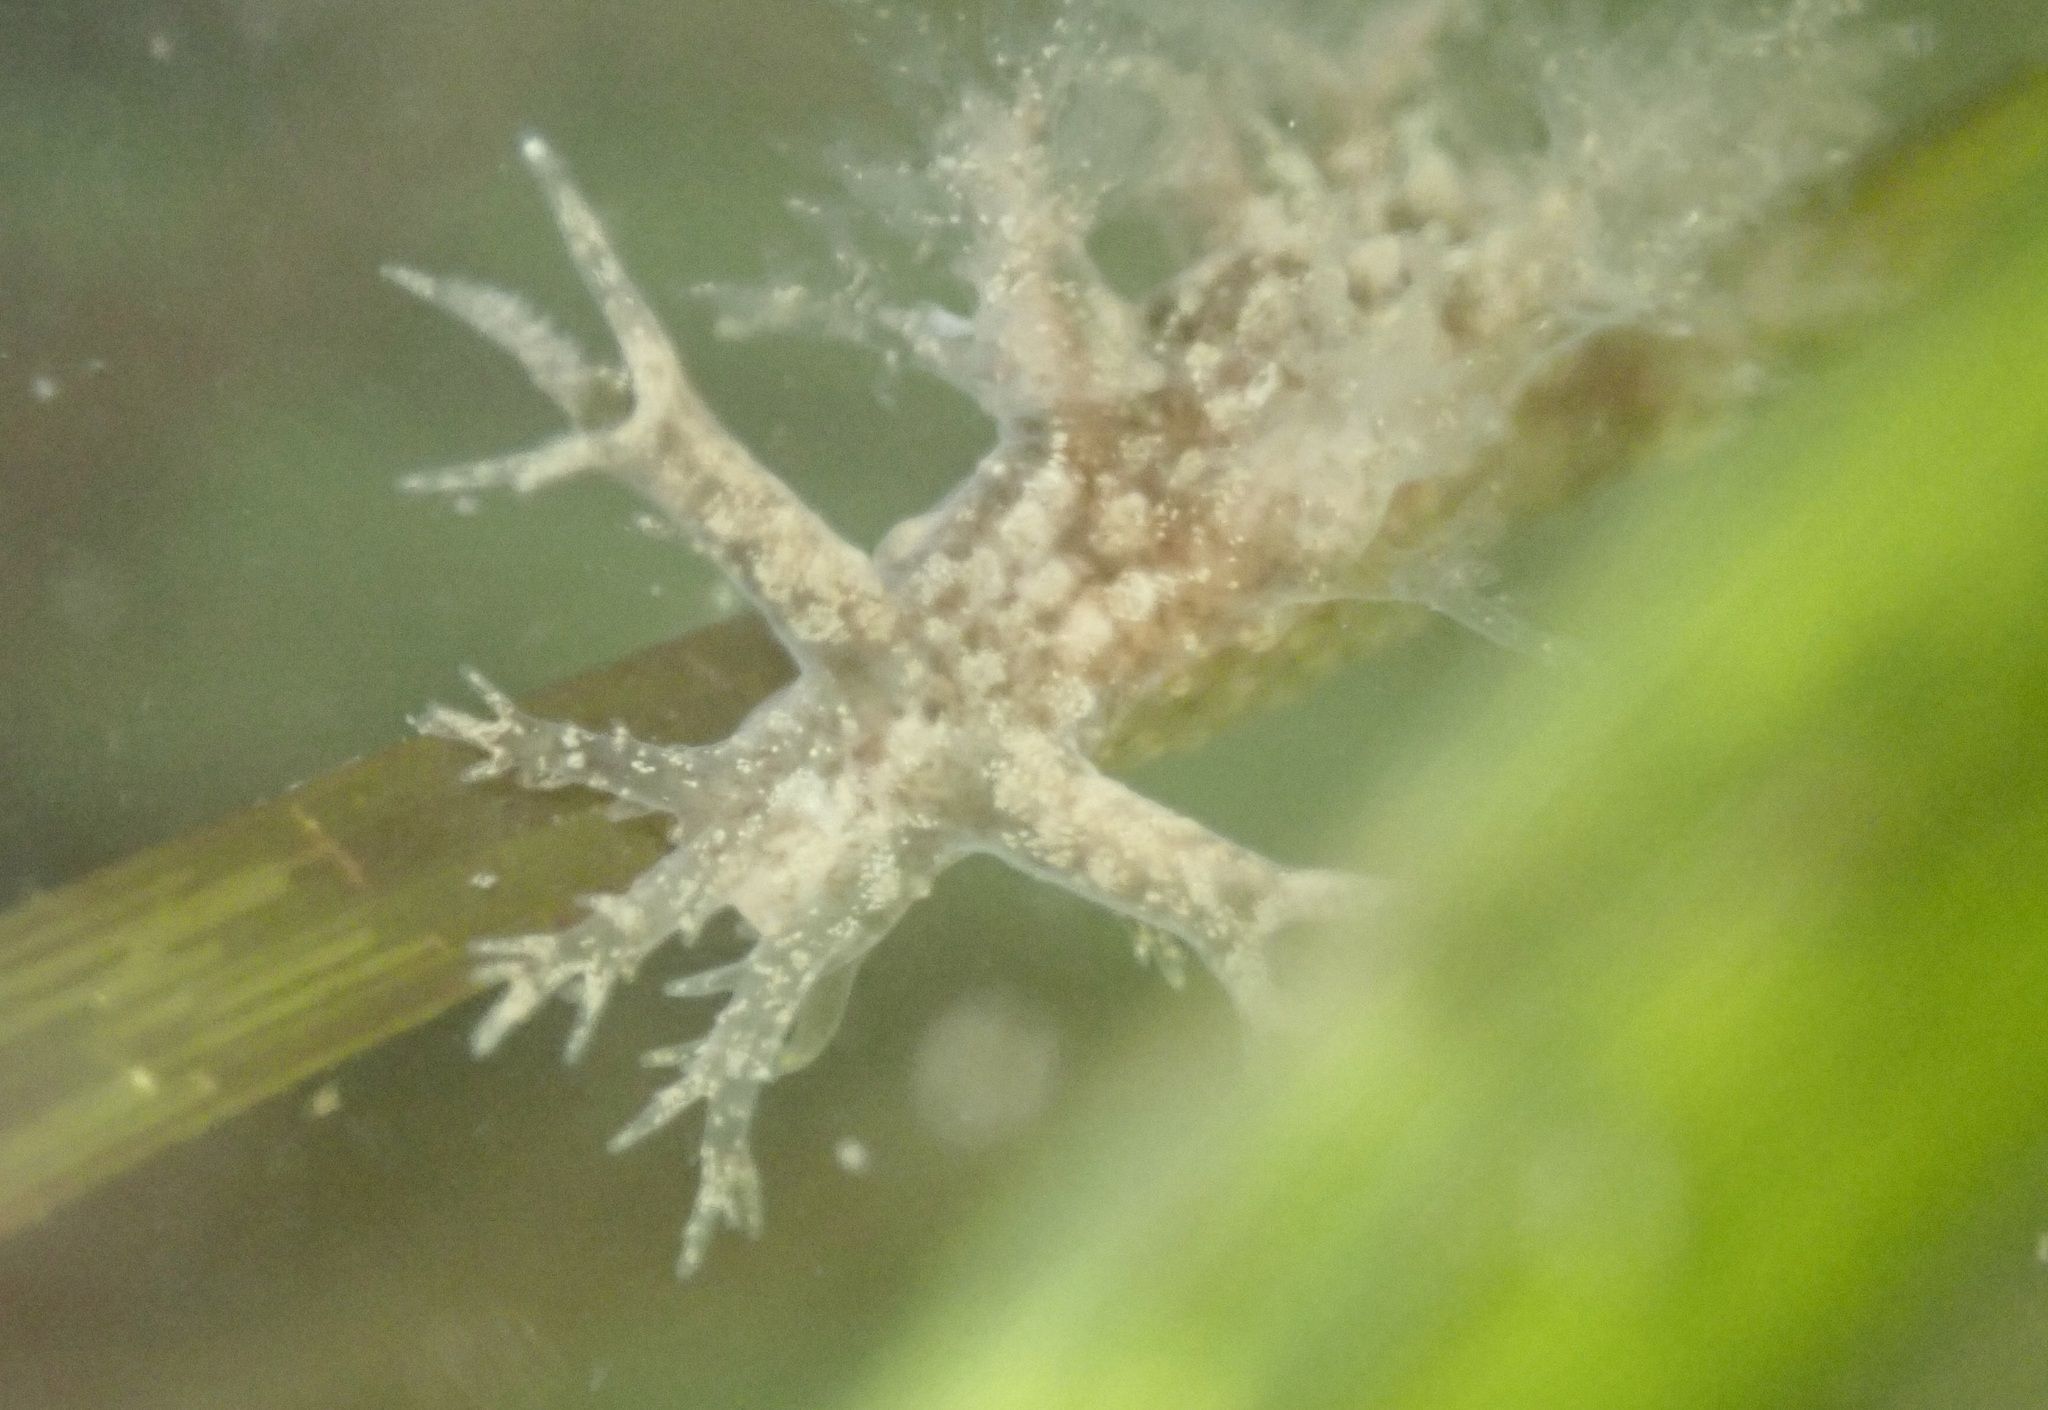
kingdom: Animalia
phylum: Mollusca
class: Gastropoda
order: Nudibranchia
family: Dendronotidae
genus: Dendronotus
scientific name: Dendronotus venustus
